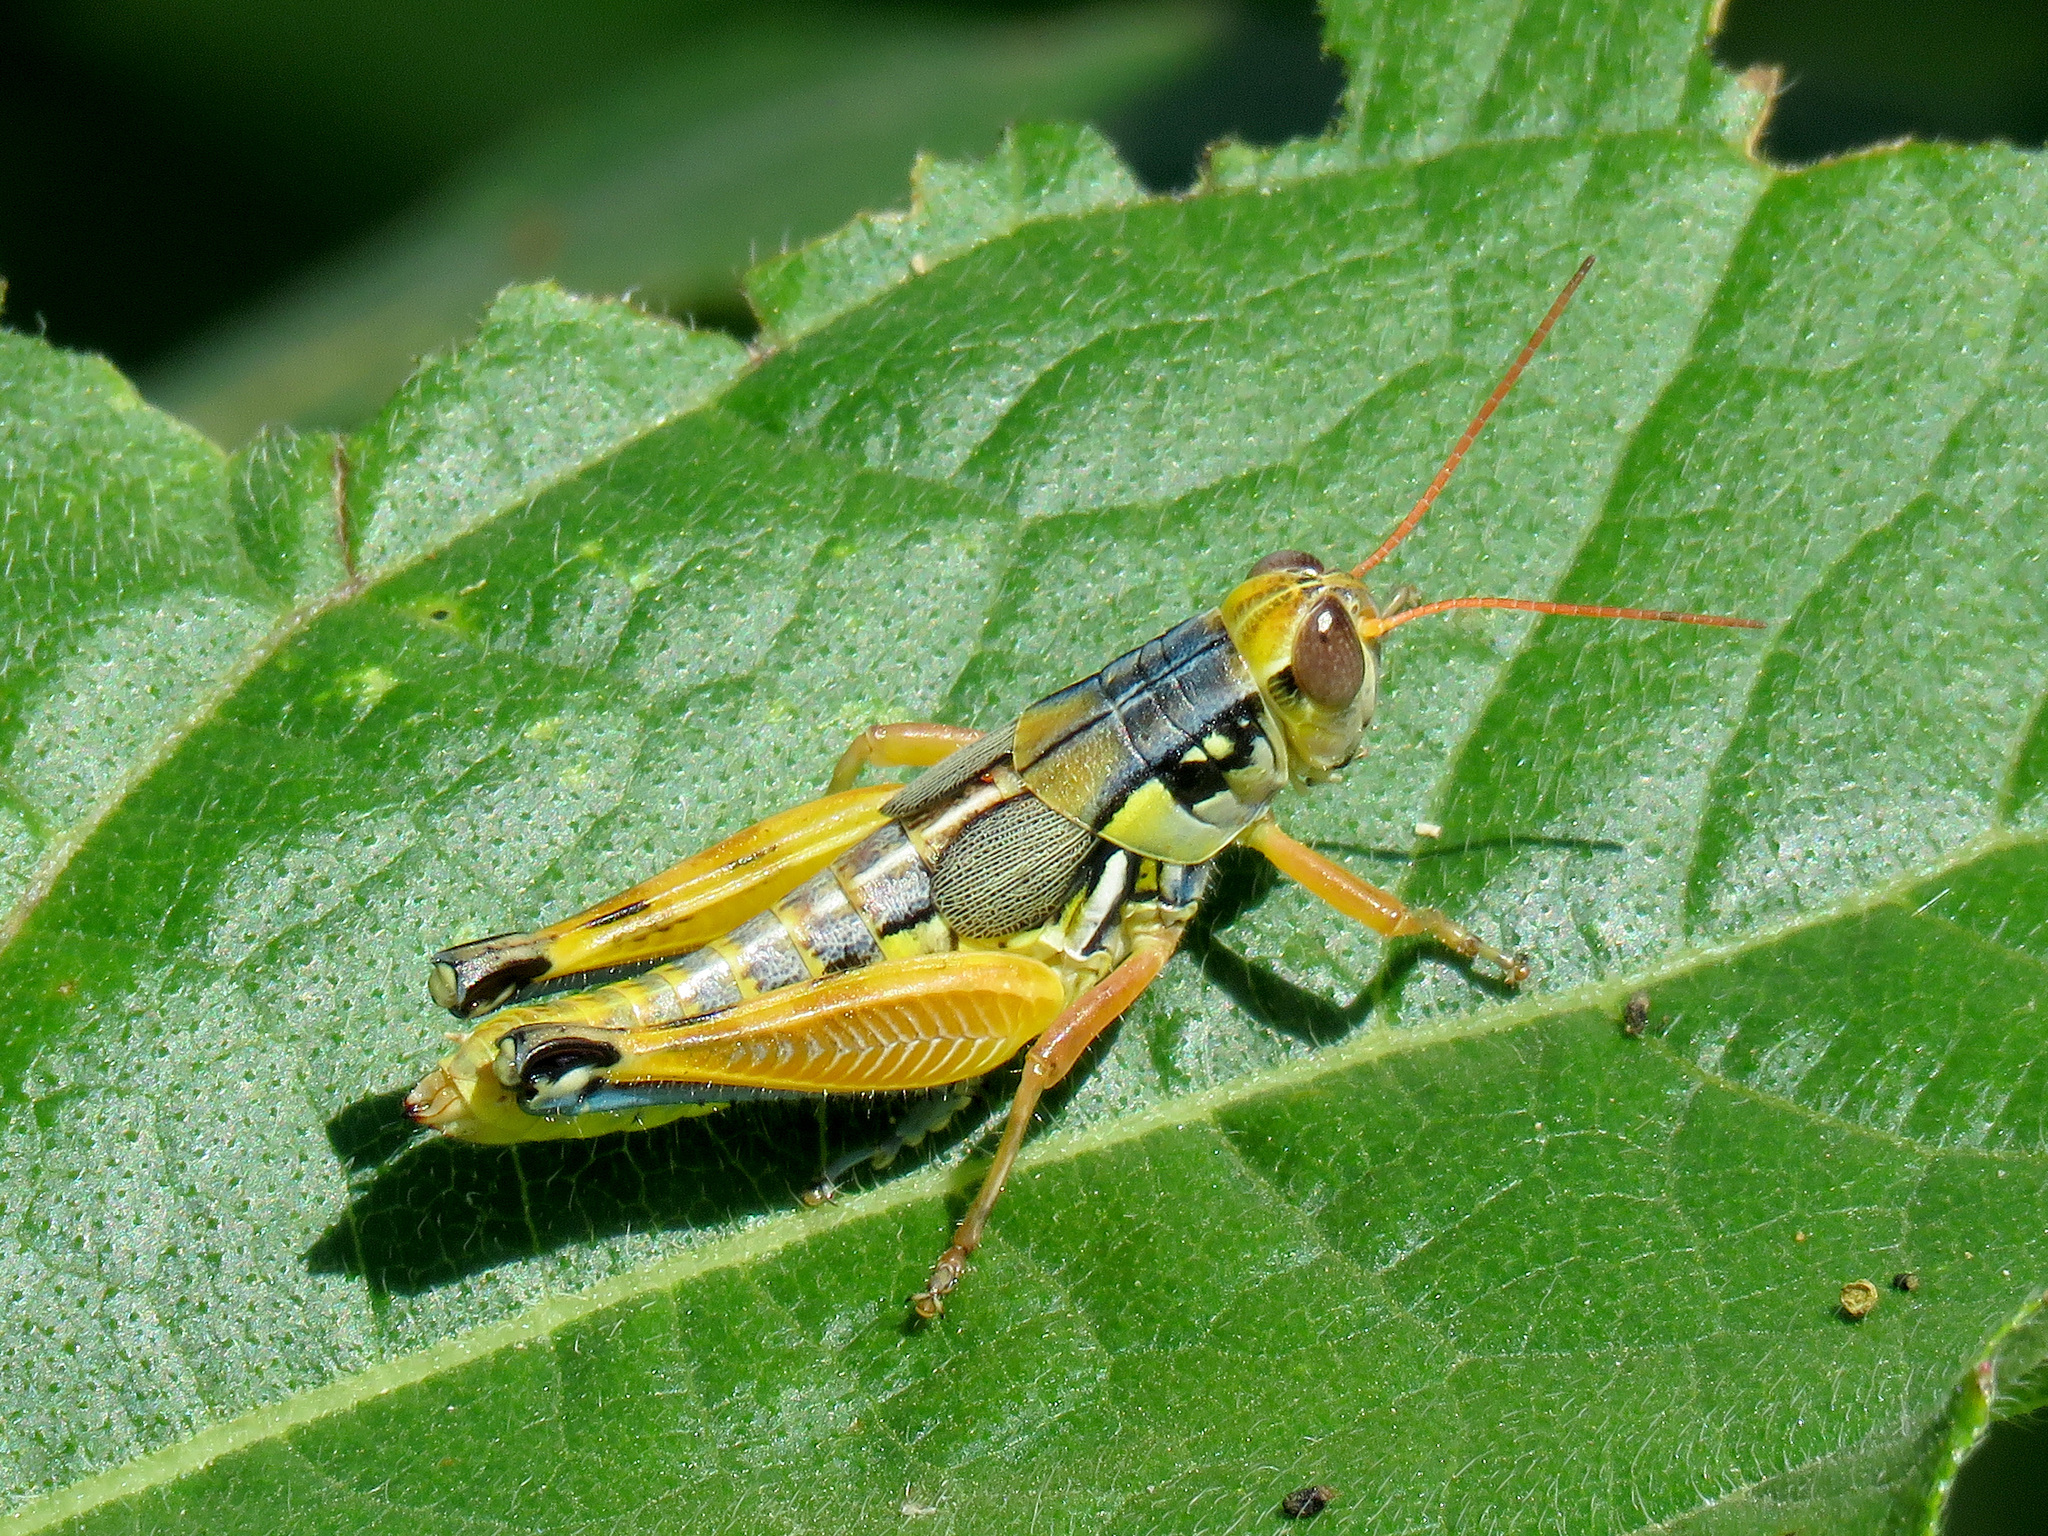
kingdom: Animalia
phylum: Arthropoda
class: Insecta
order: Orthoptera
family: Acrididae
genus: Melanoplus
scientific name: Melanoplus aridus
